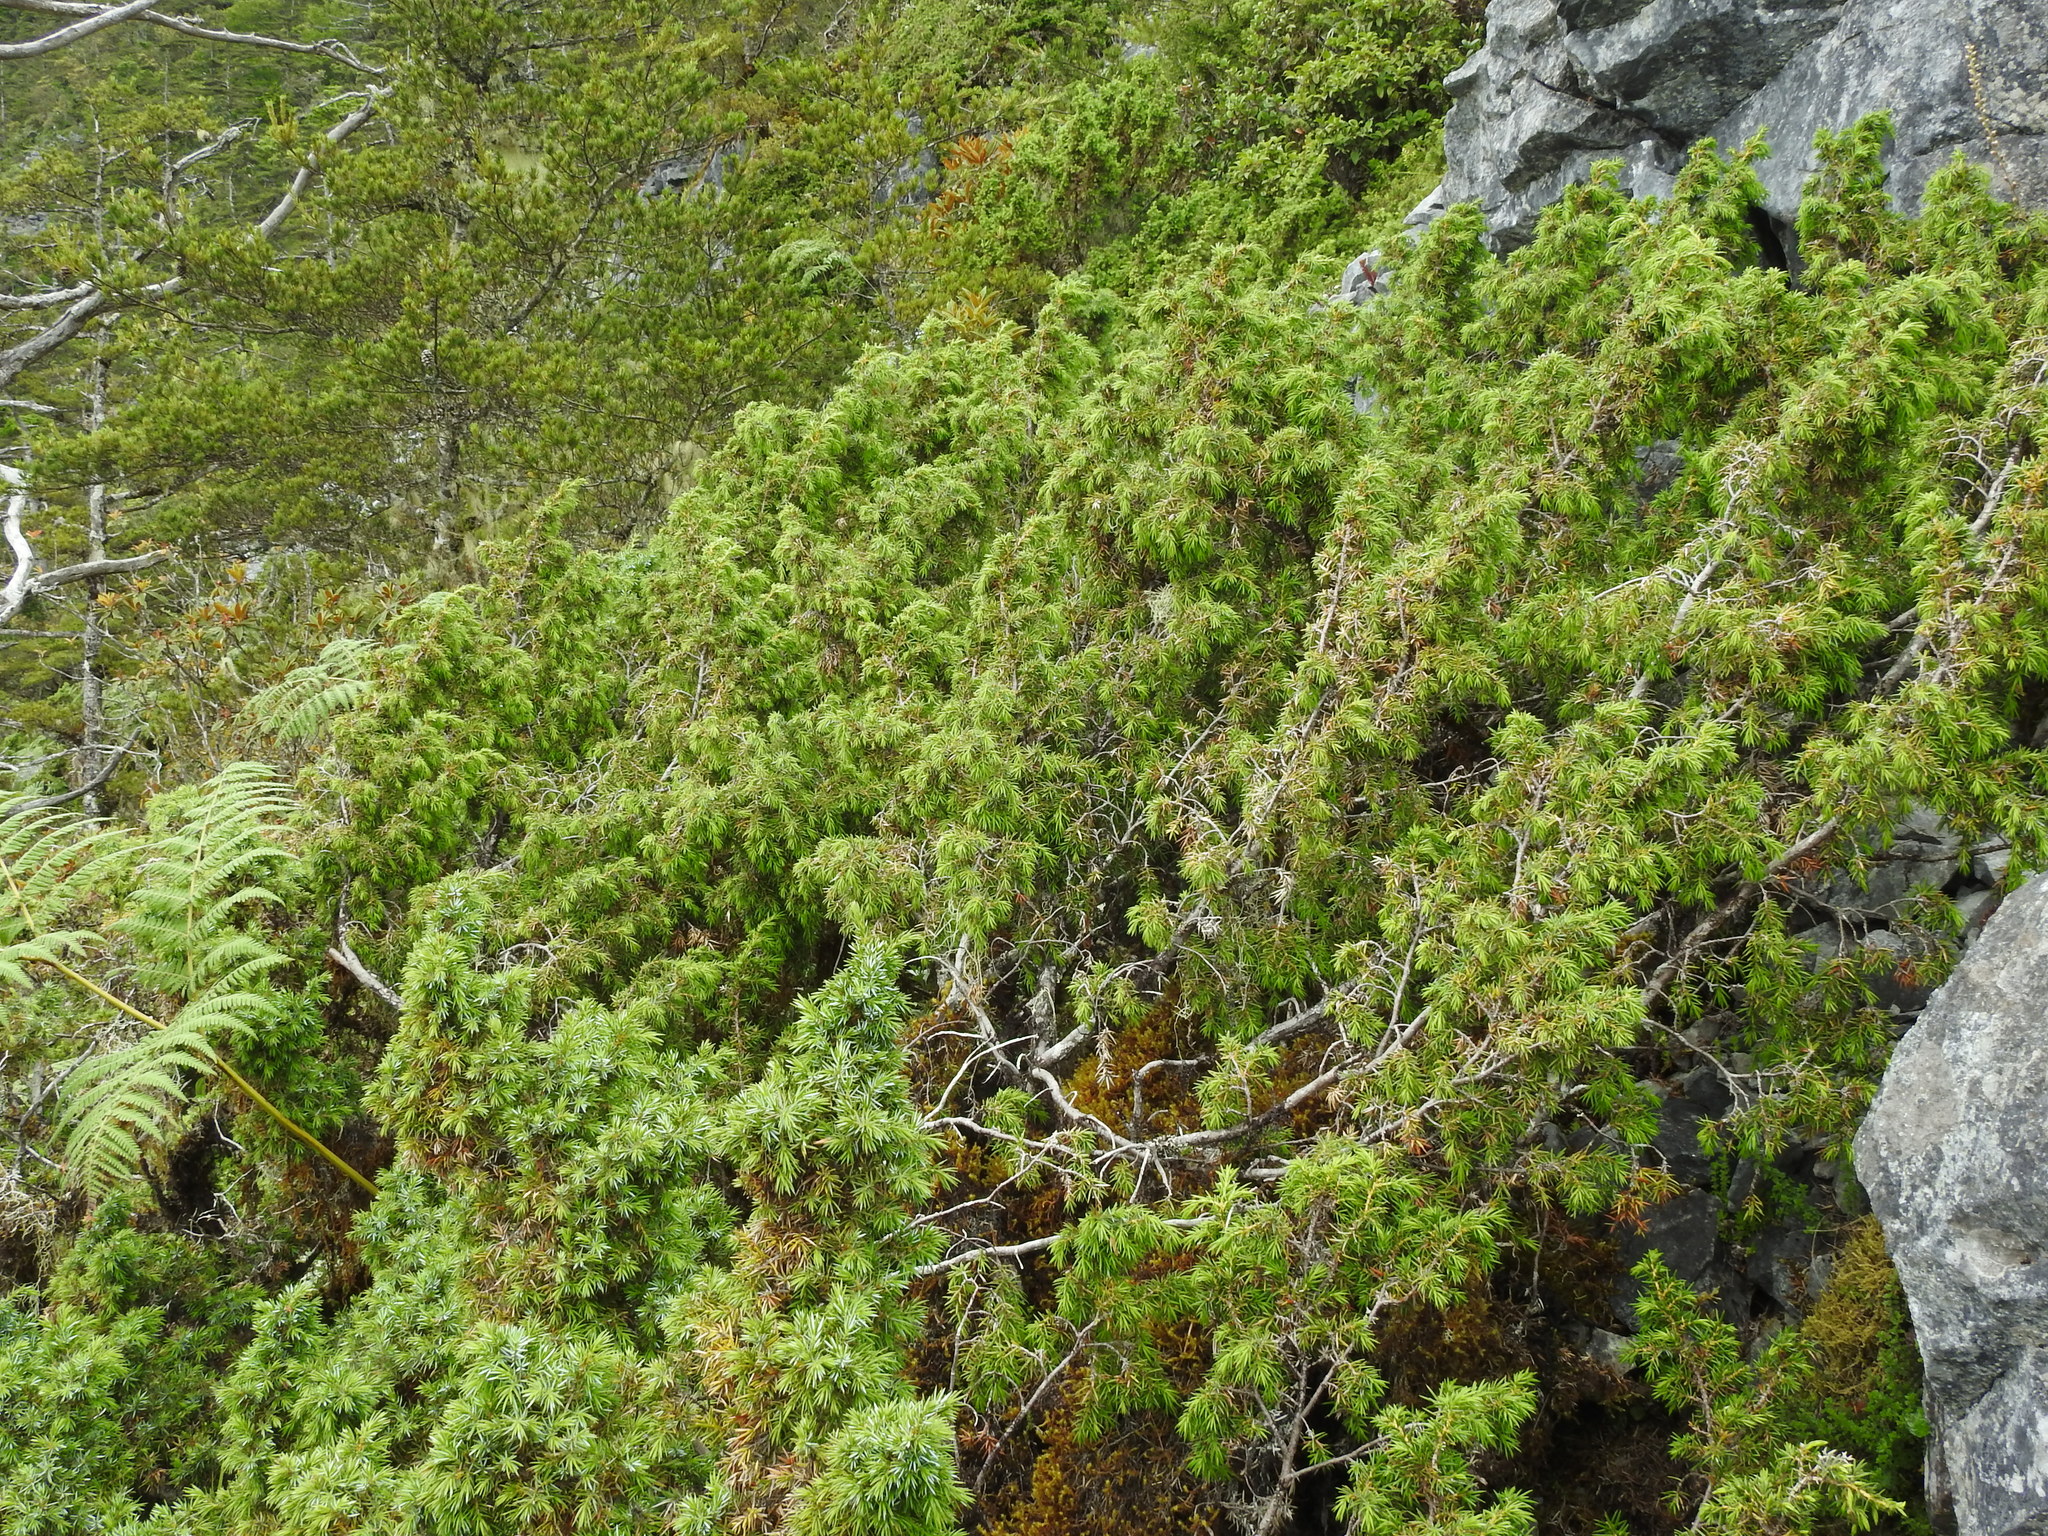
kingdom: Plantae
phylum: Tracheophyta
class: Pinopsida
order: Pinales
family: Cupressaceae
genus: Juniperus
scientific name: Juniperus chinensis
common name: Chinese juniper
